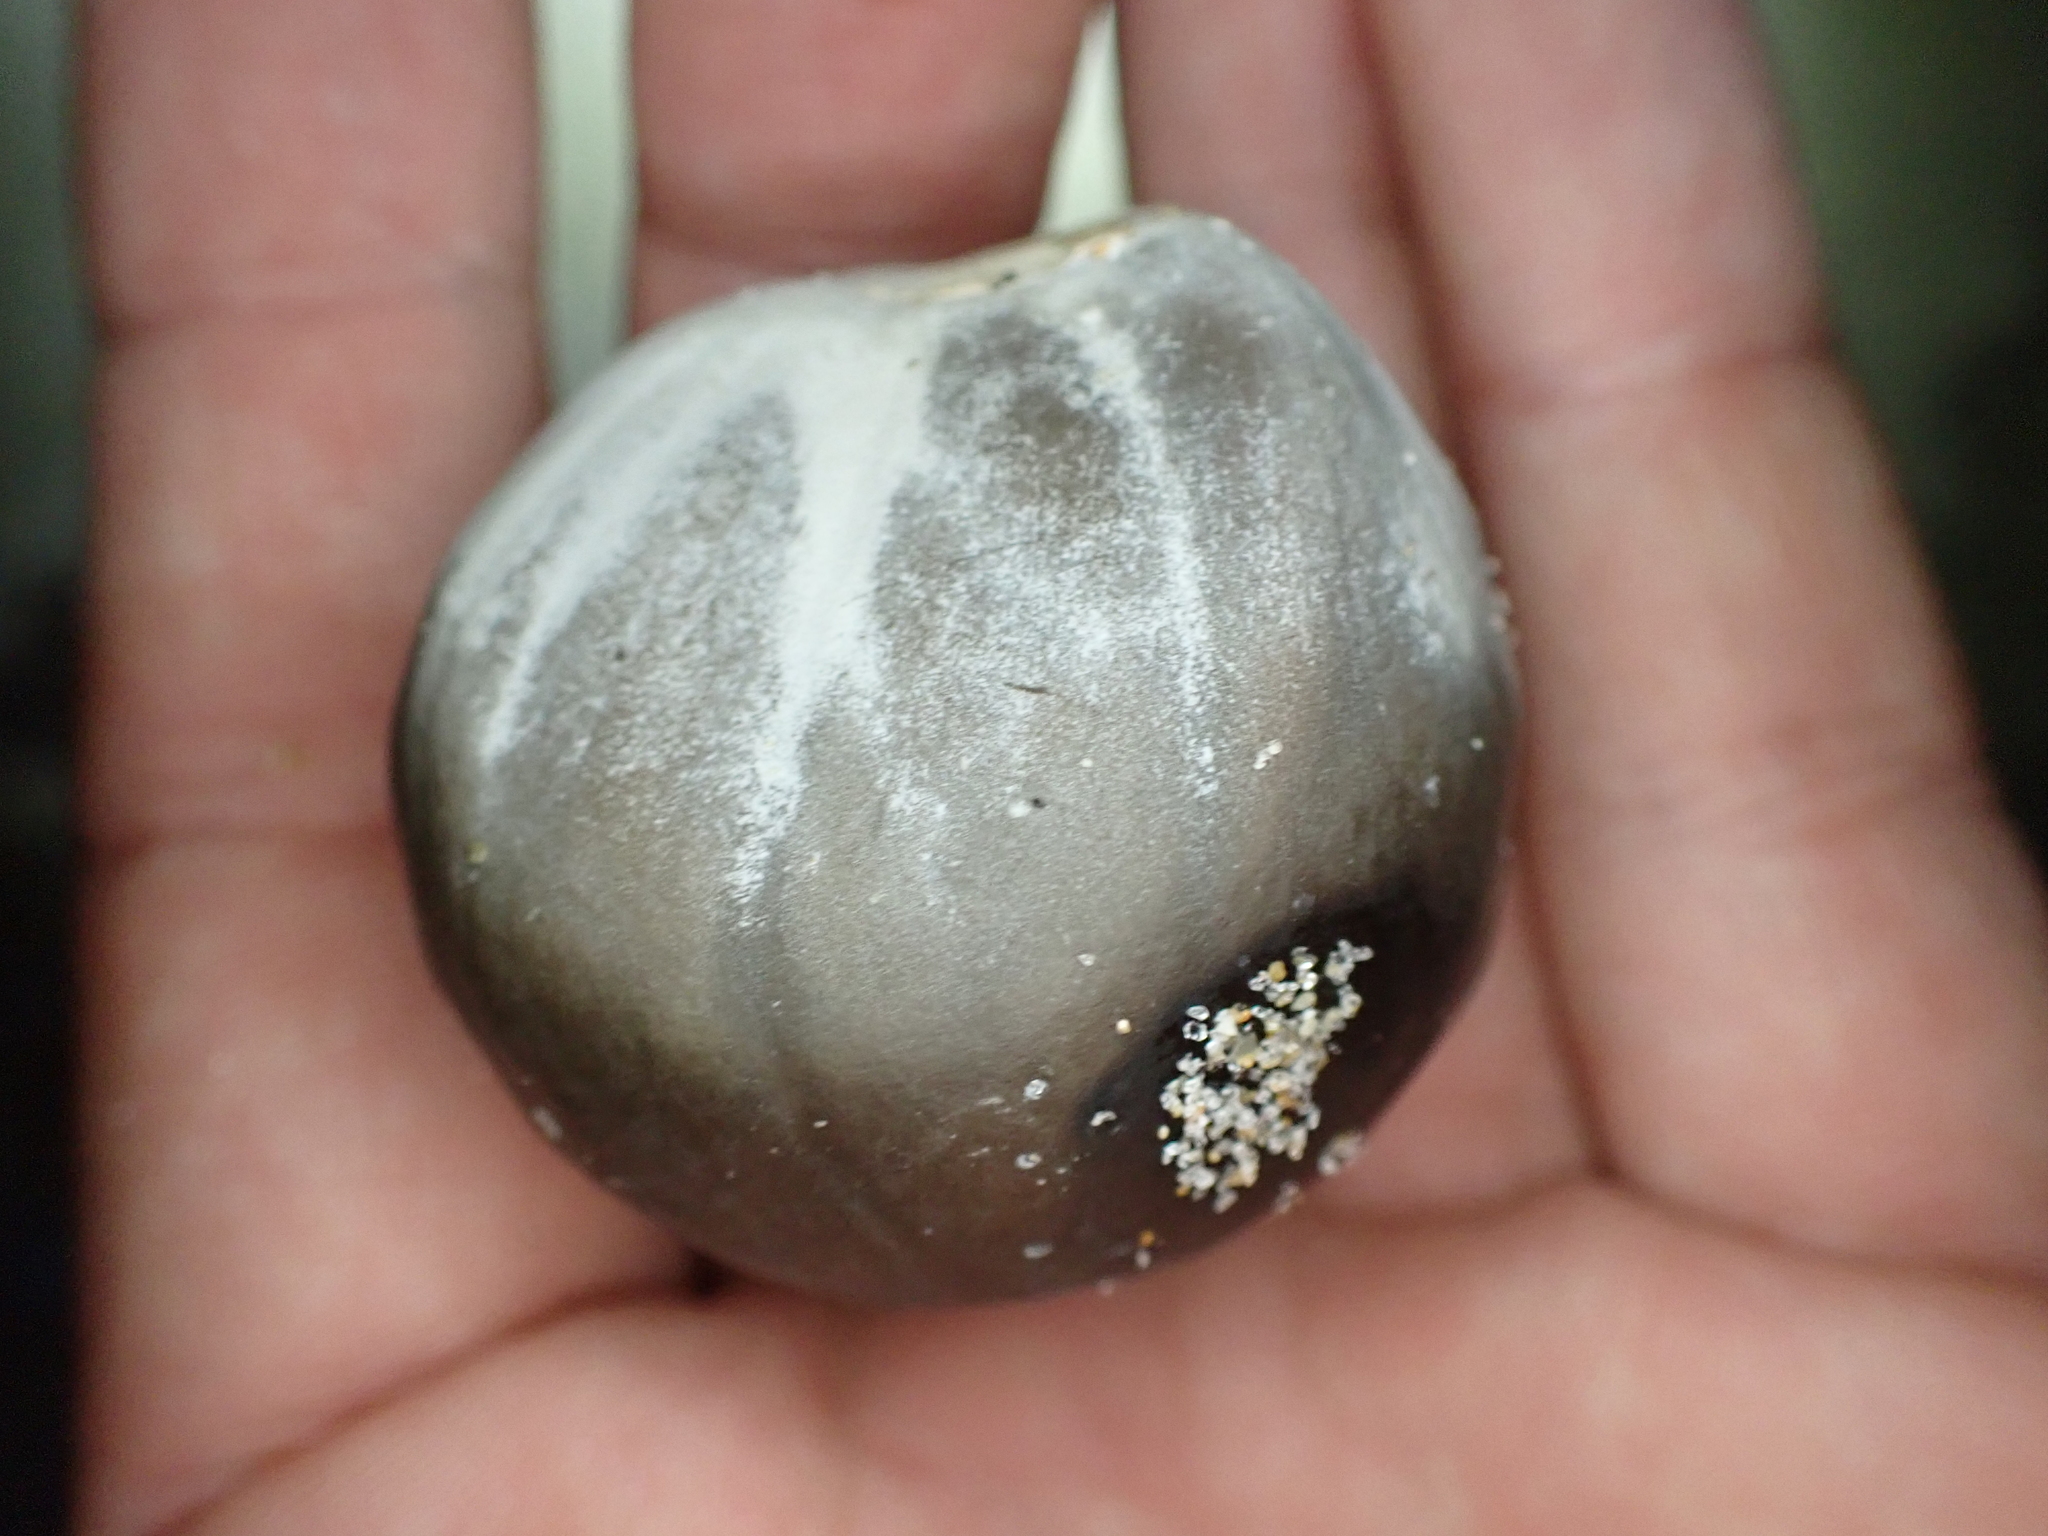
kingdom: Plantae
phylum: Tracheophyta
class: Liliopsida
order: Arecales
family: Arecaceae
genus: Manicaria
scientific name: Manicaria saccifera
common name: Sea coconut
